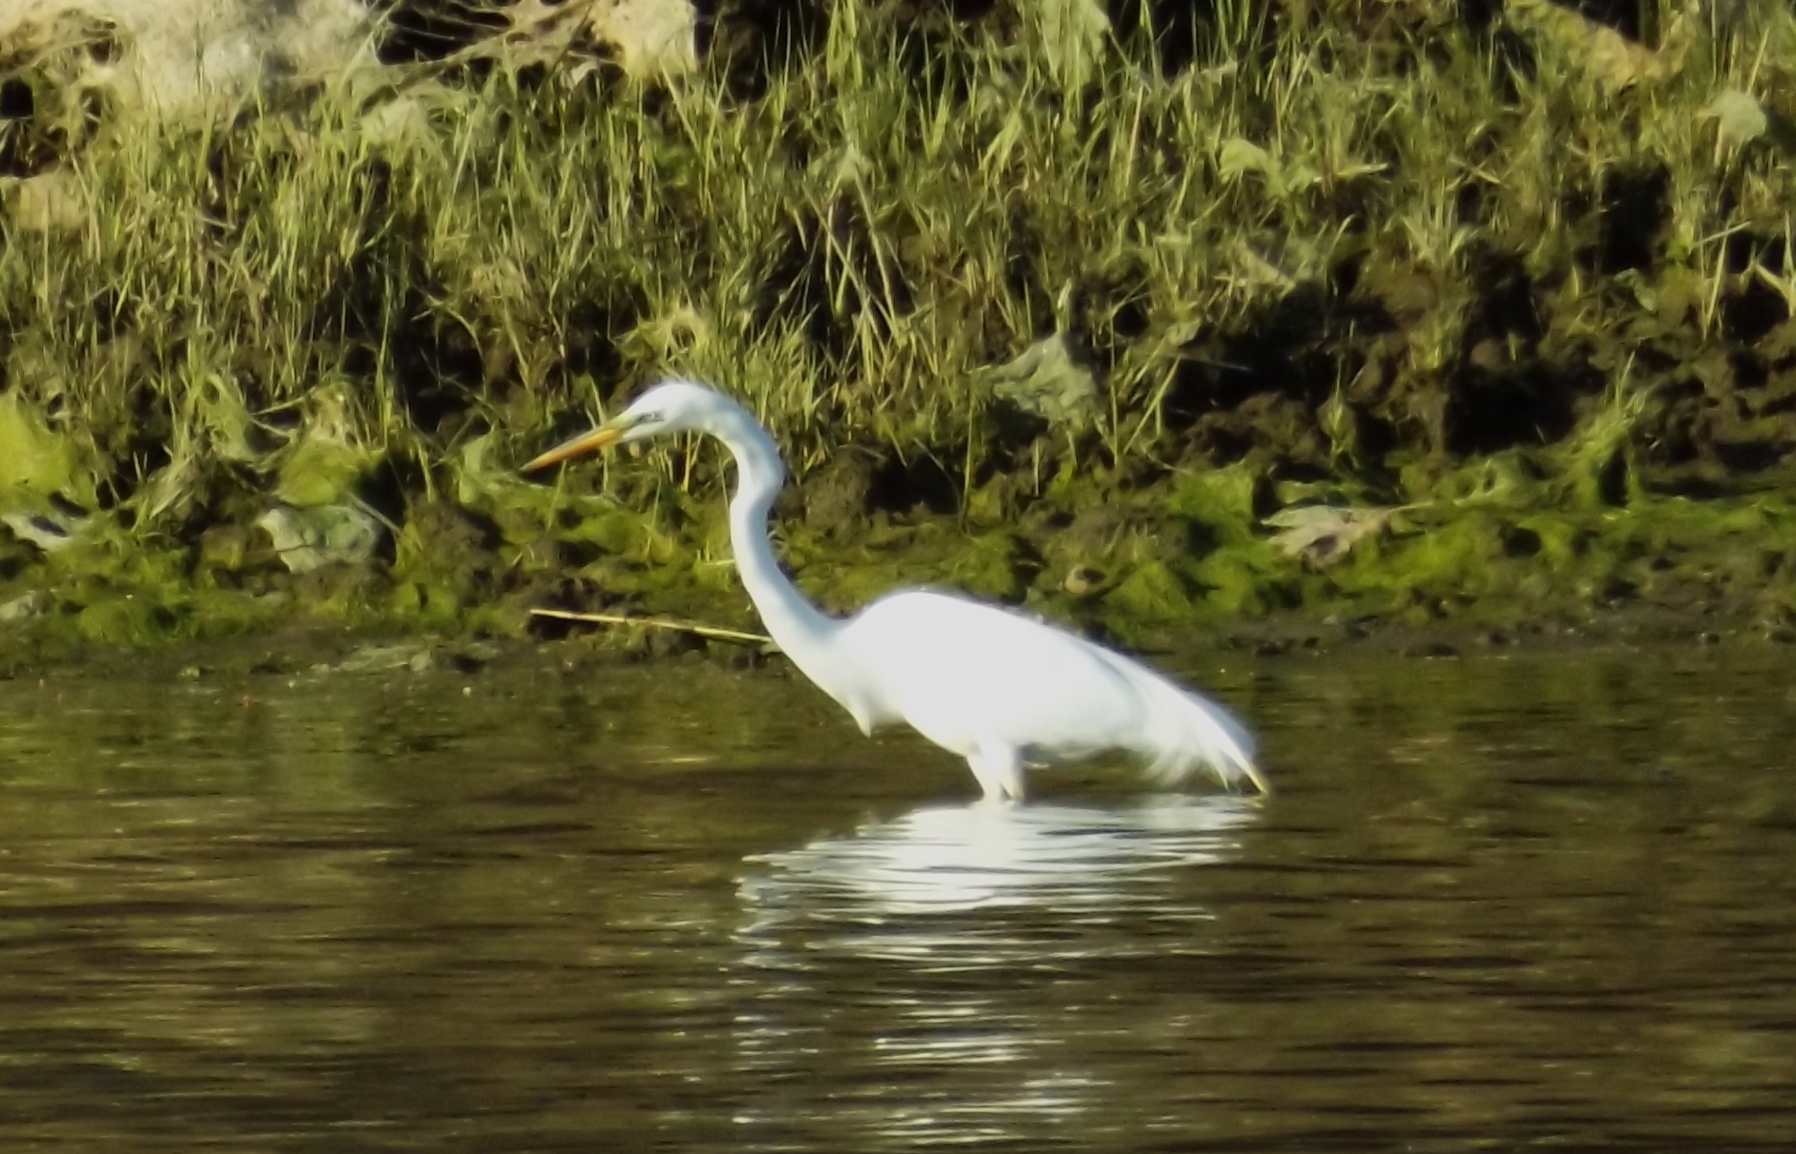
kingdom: Animalia
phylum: Chordata
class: Aves
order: Pelecaniformes
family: Ardeidae
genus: Ardea
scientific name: Ardea alba
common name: Great egret
